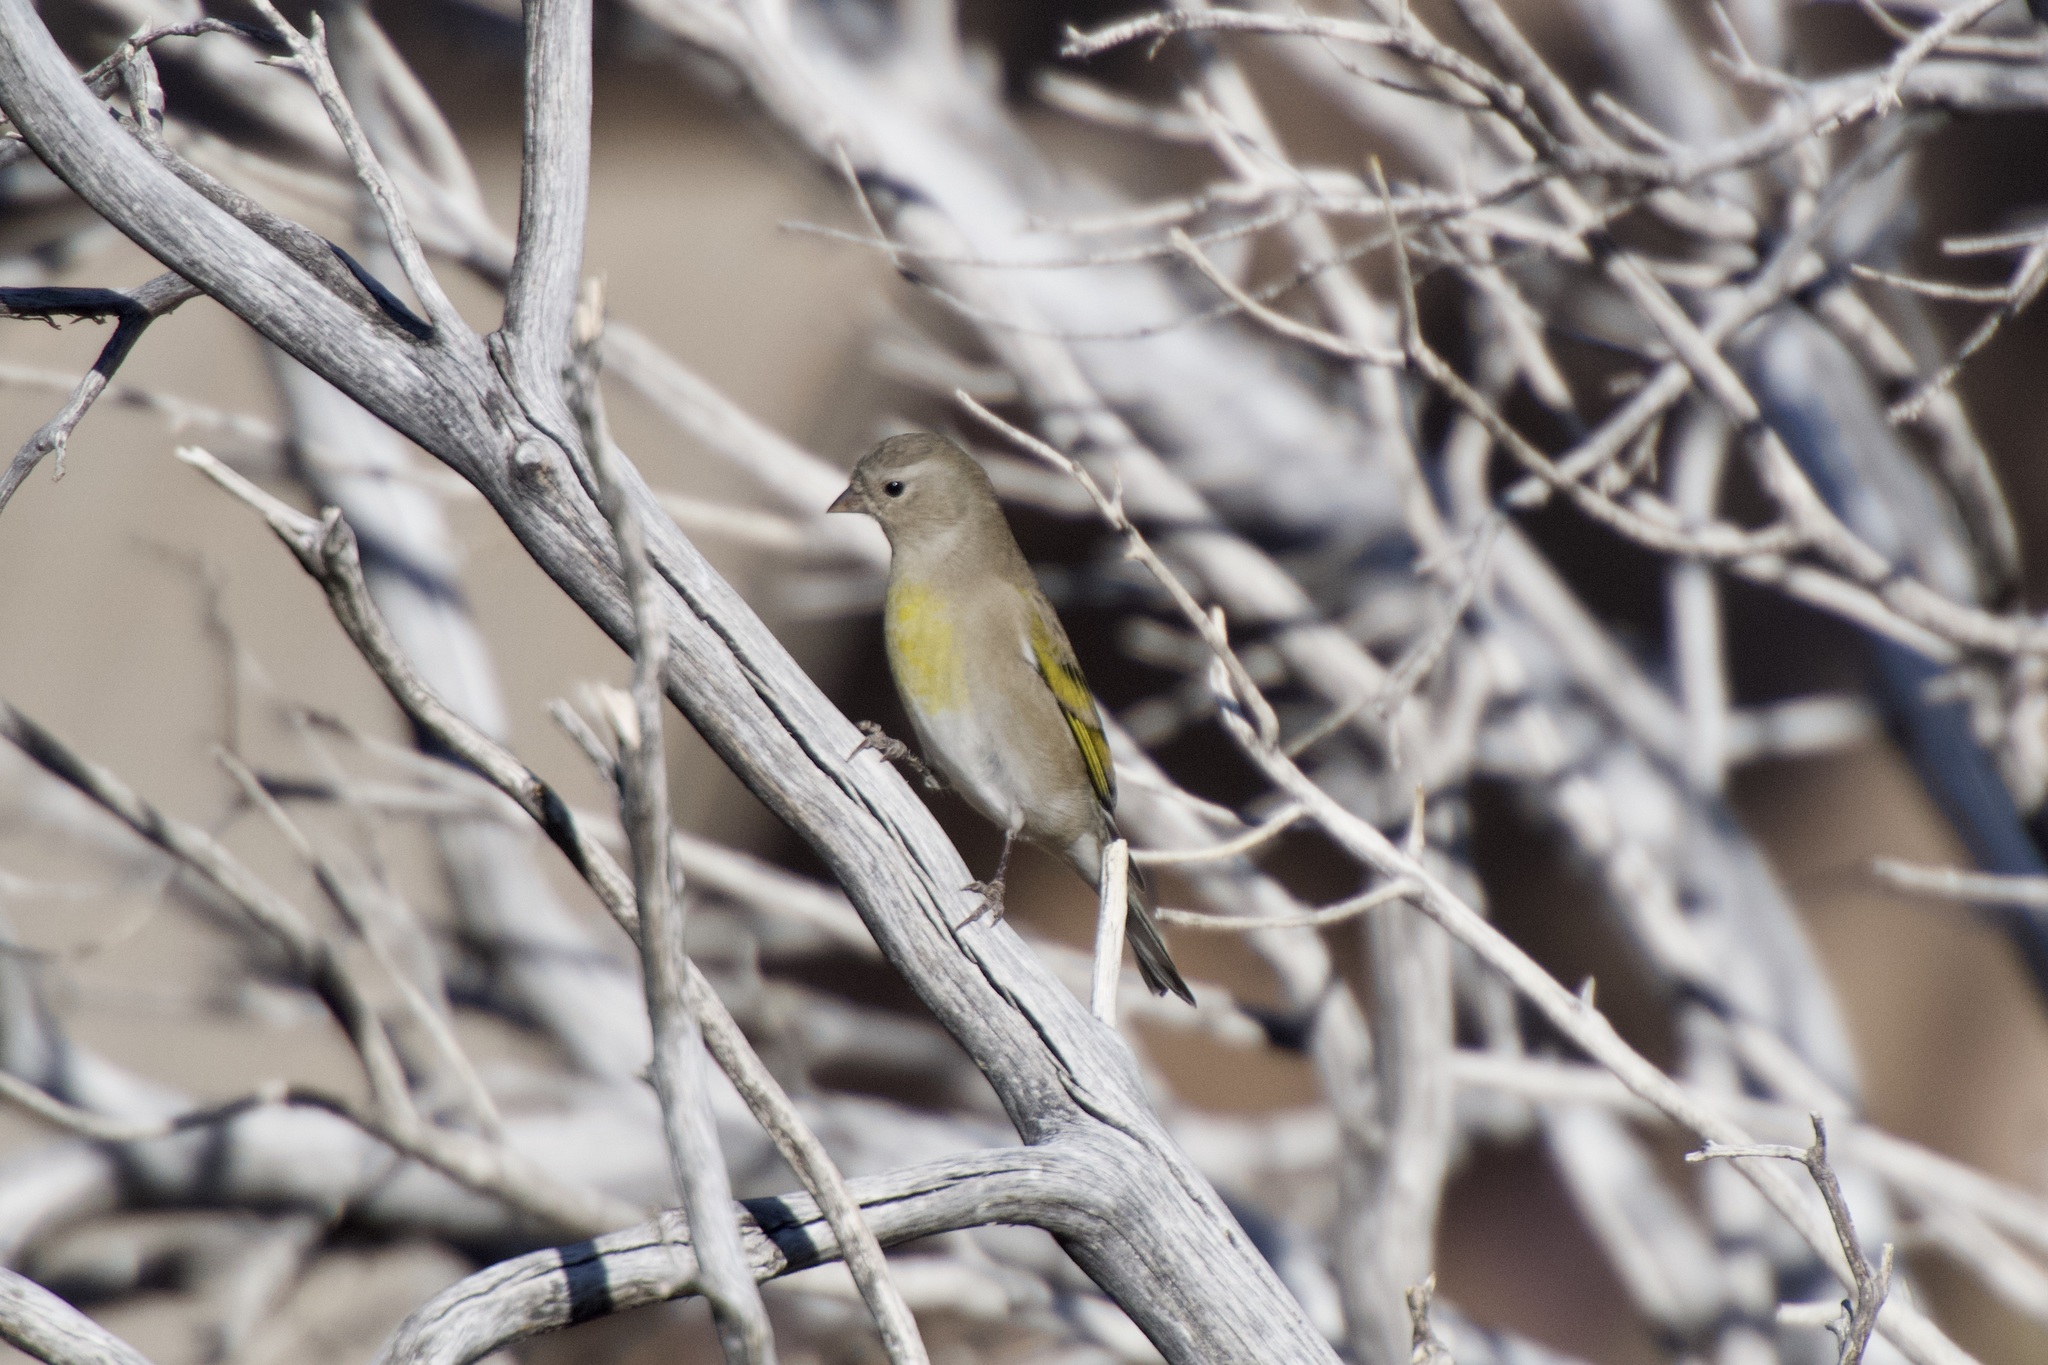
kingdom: Animalia
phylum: Chordata
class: Aves
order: Passeriformes
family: Fringillidae
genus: Spinus
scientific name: Spinus lawrencei
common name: Lawrence's goldfinch
